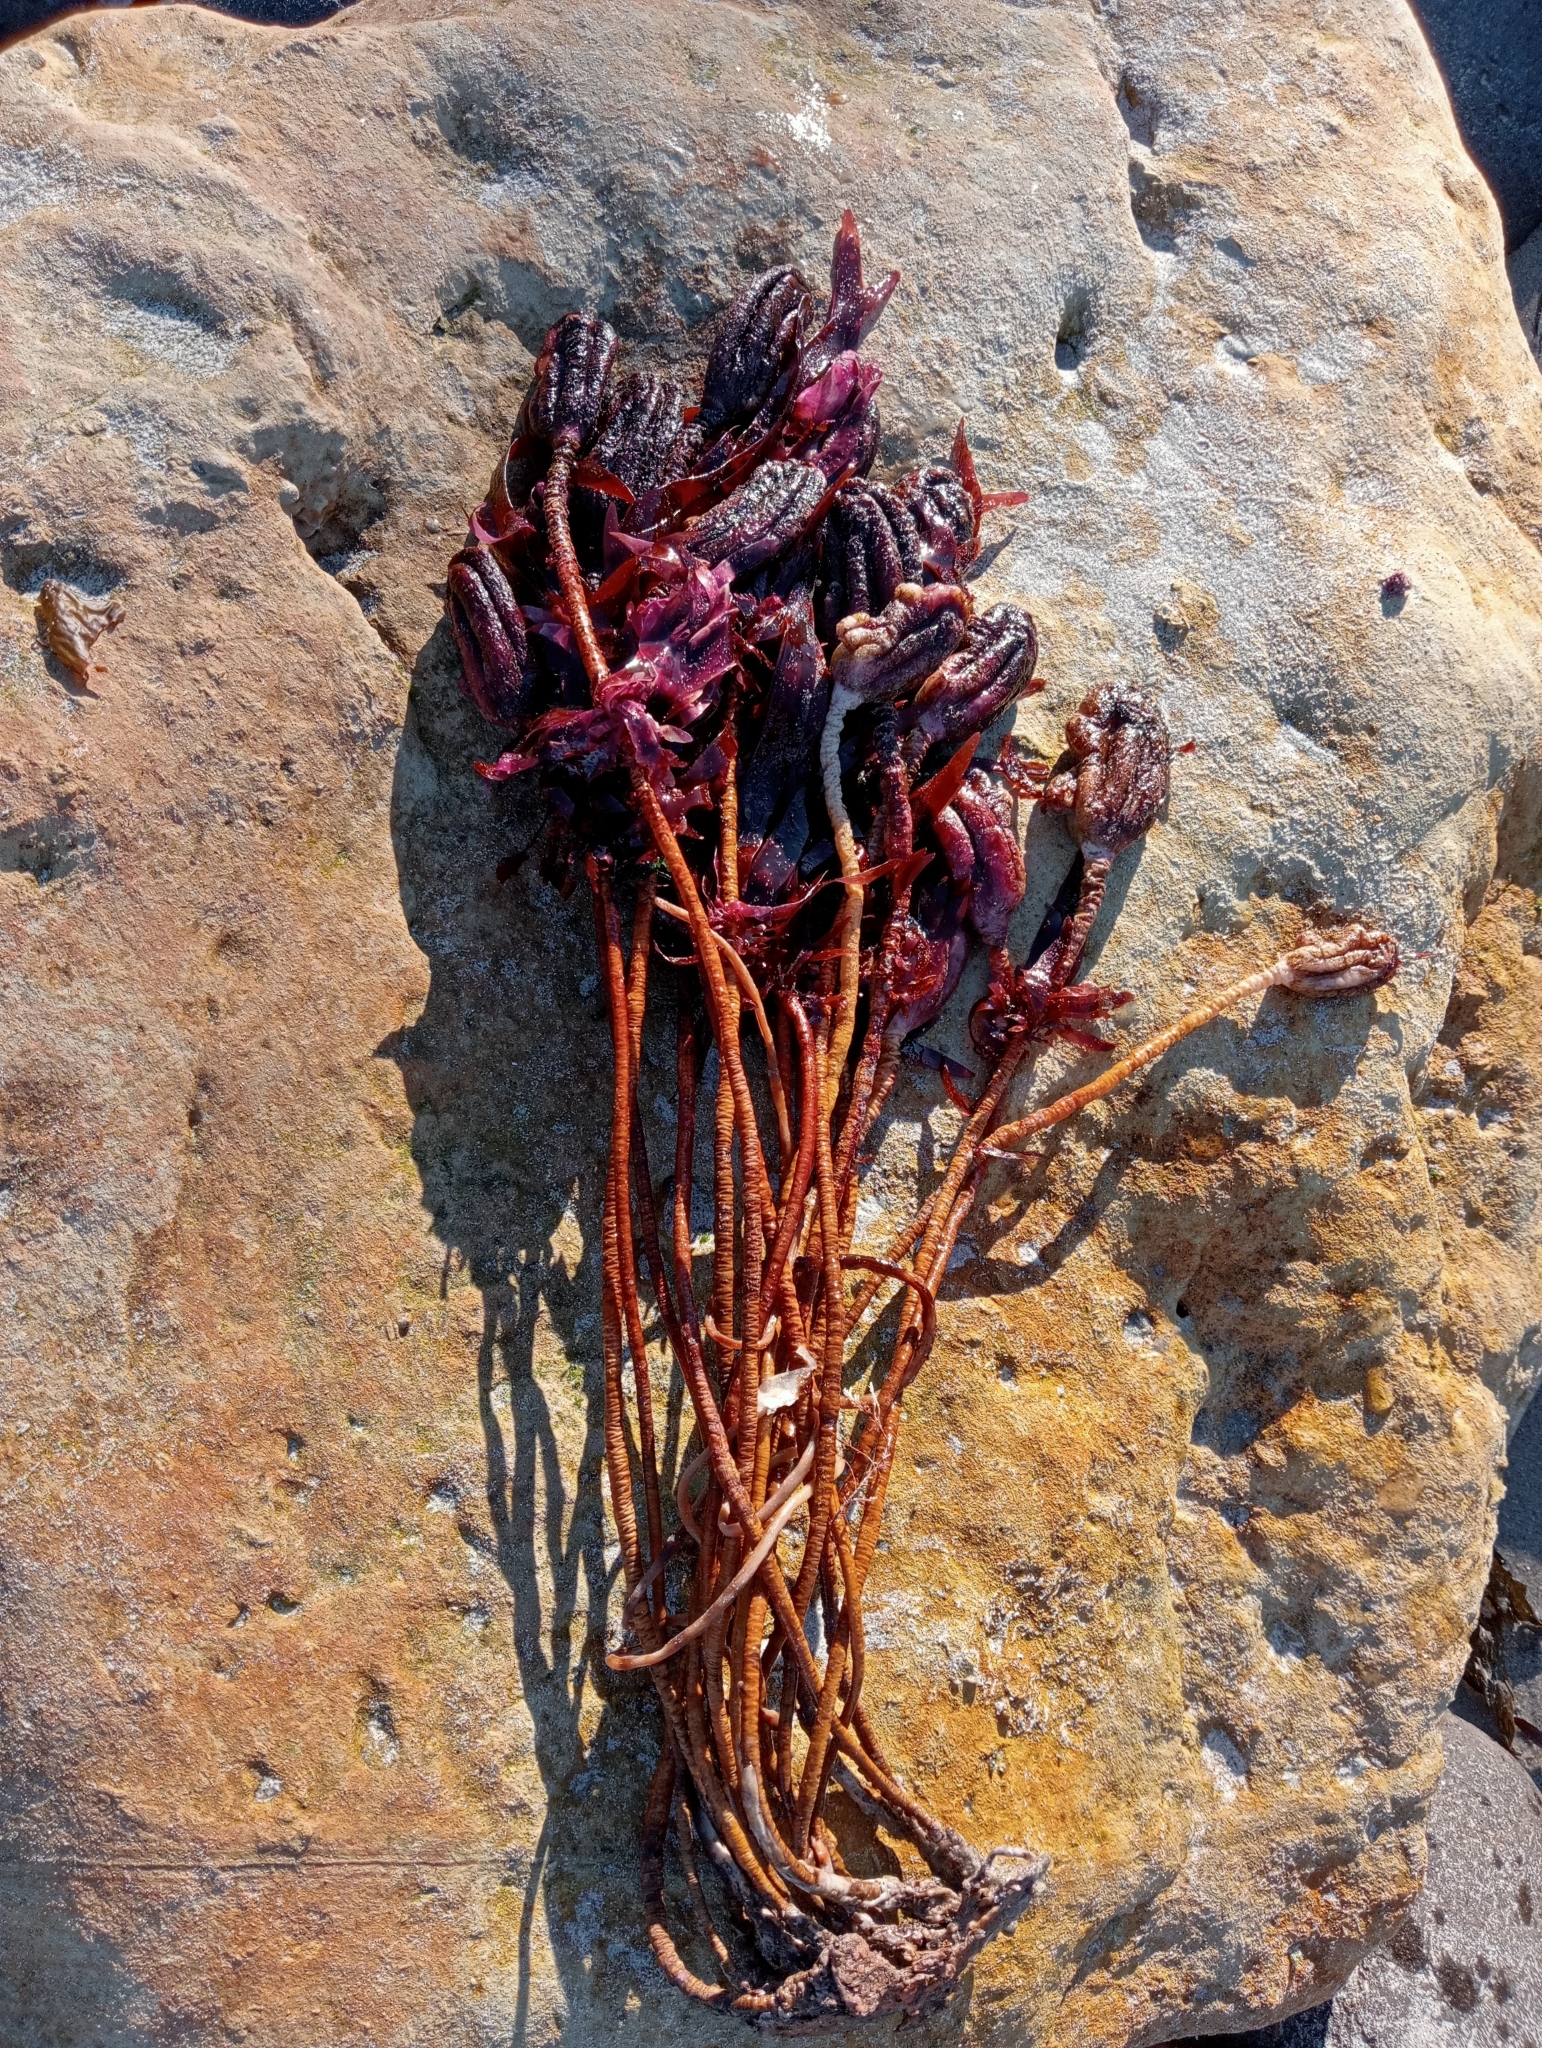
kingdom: Animalia
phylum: Chordata
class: Ascidiacea
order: Stolidobranchia
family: Pyuridae
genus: Pyura
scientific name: Pyura pachydermatina
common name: Sea tulip
